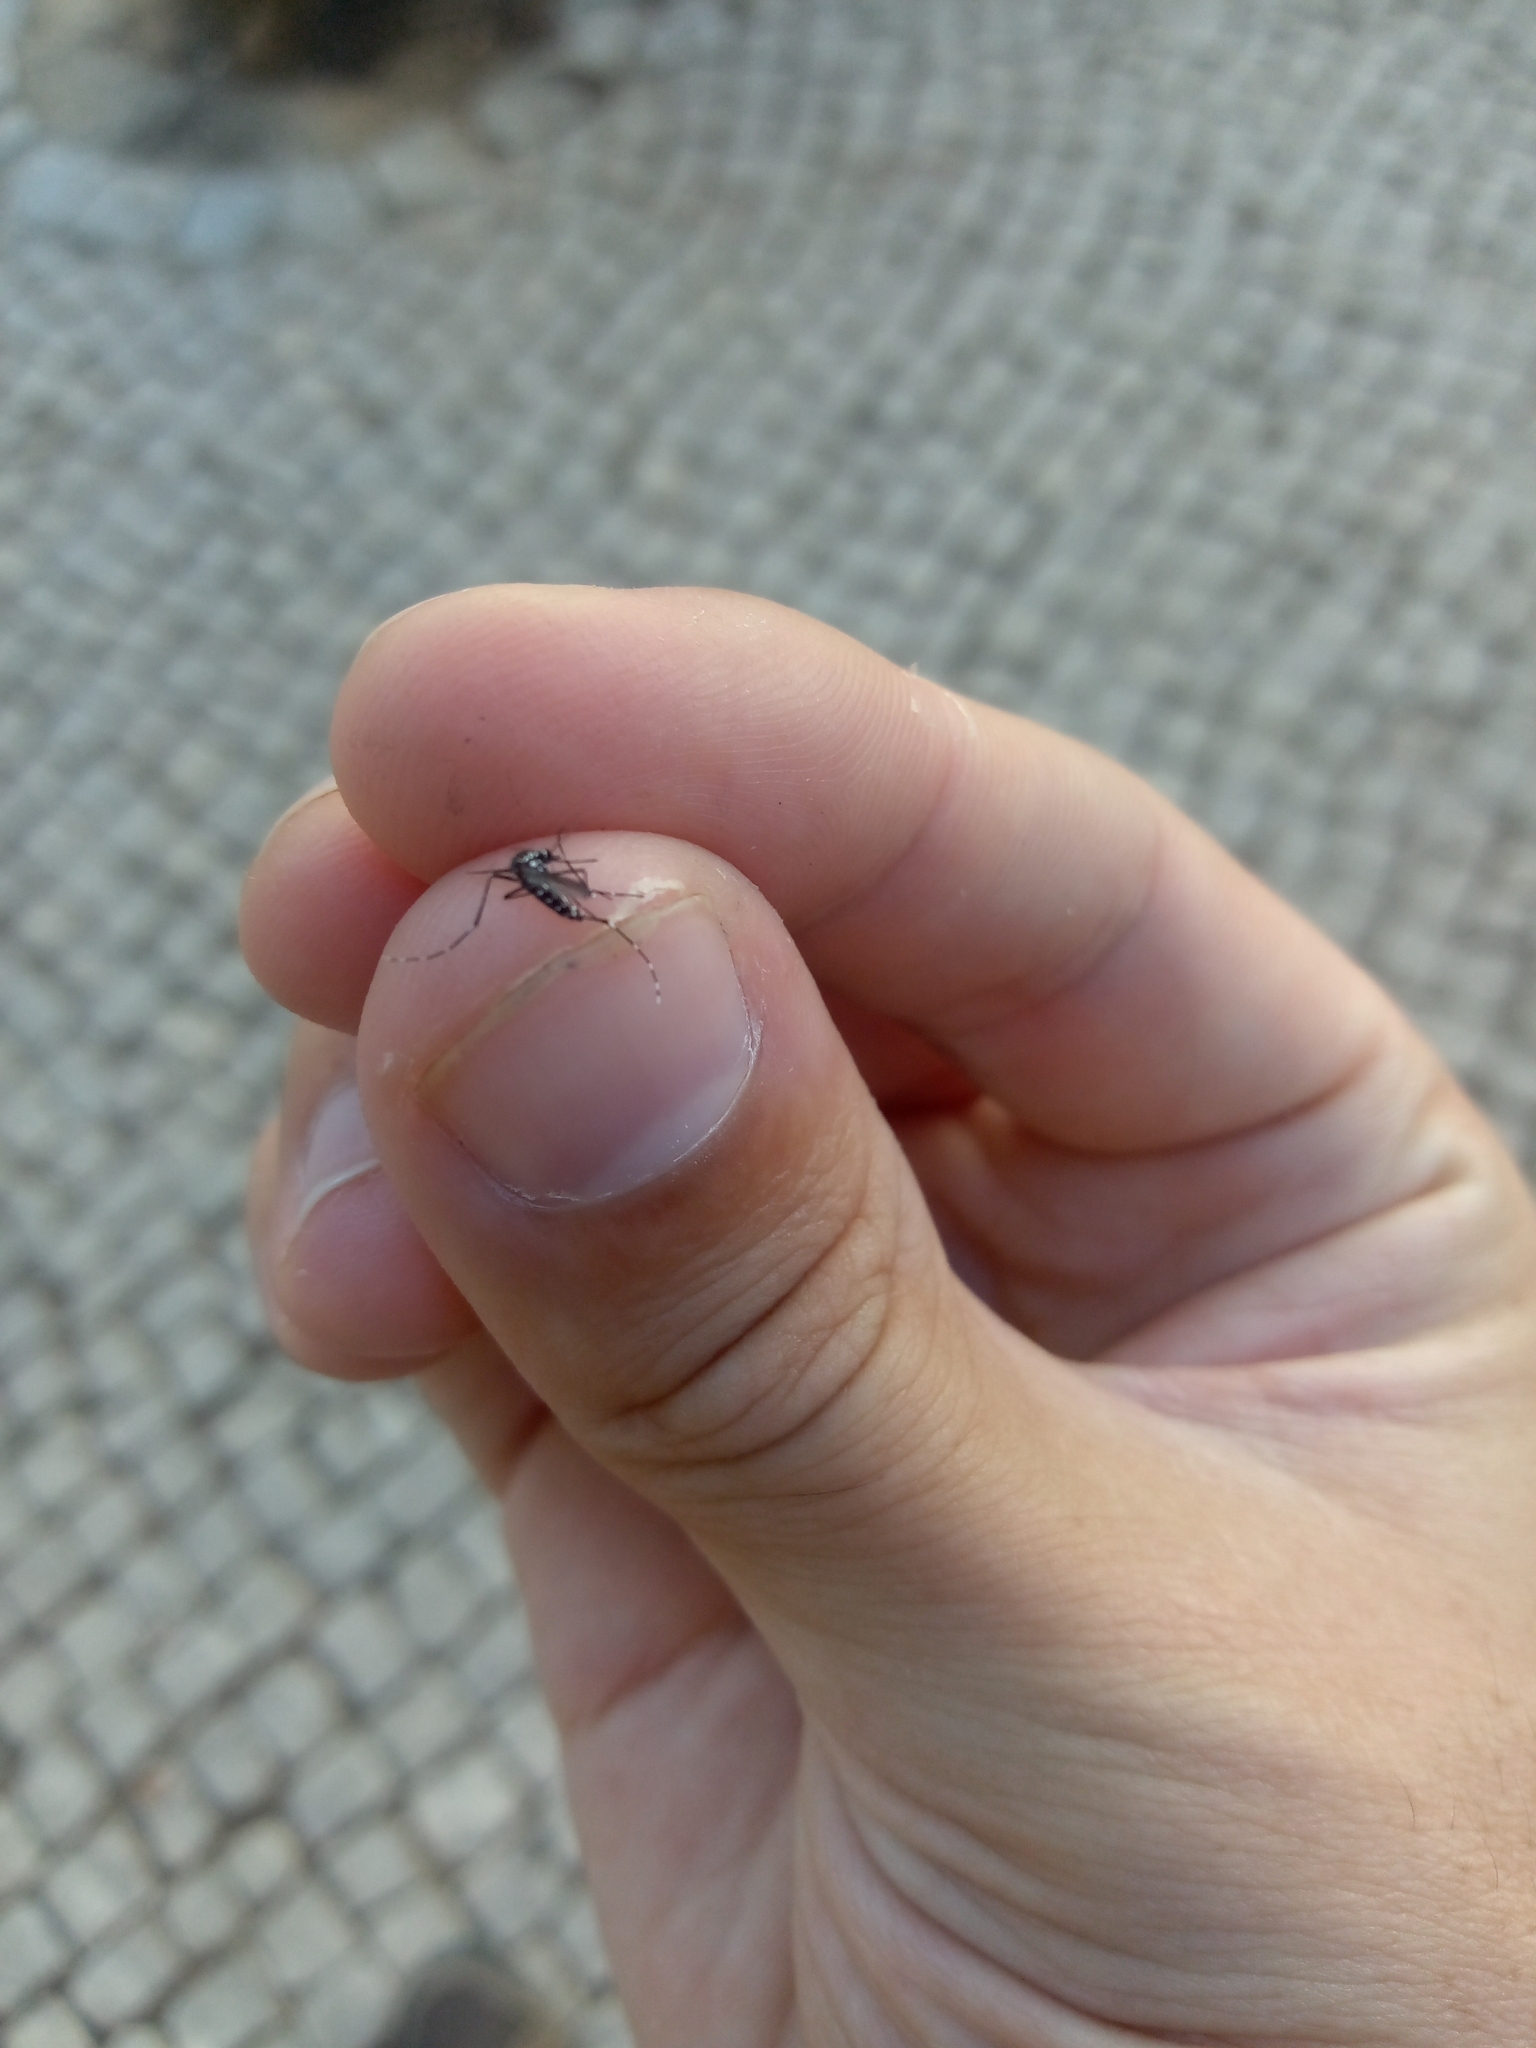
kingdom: Animalia
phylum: Arthropoda
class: Insecta
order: Diptera
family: Culicidae
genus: Aedes
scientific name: Aedes albopictus
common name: Tiger mosquito
